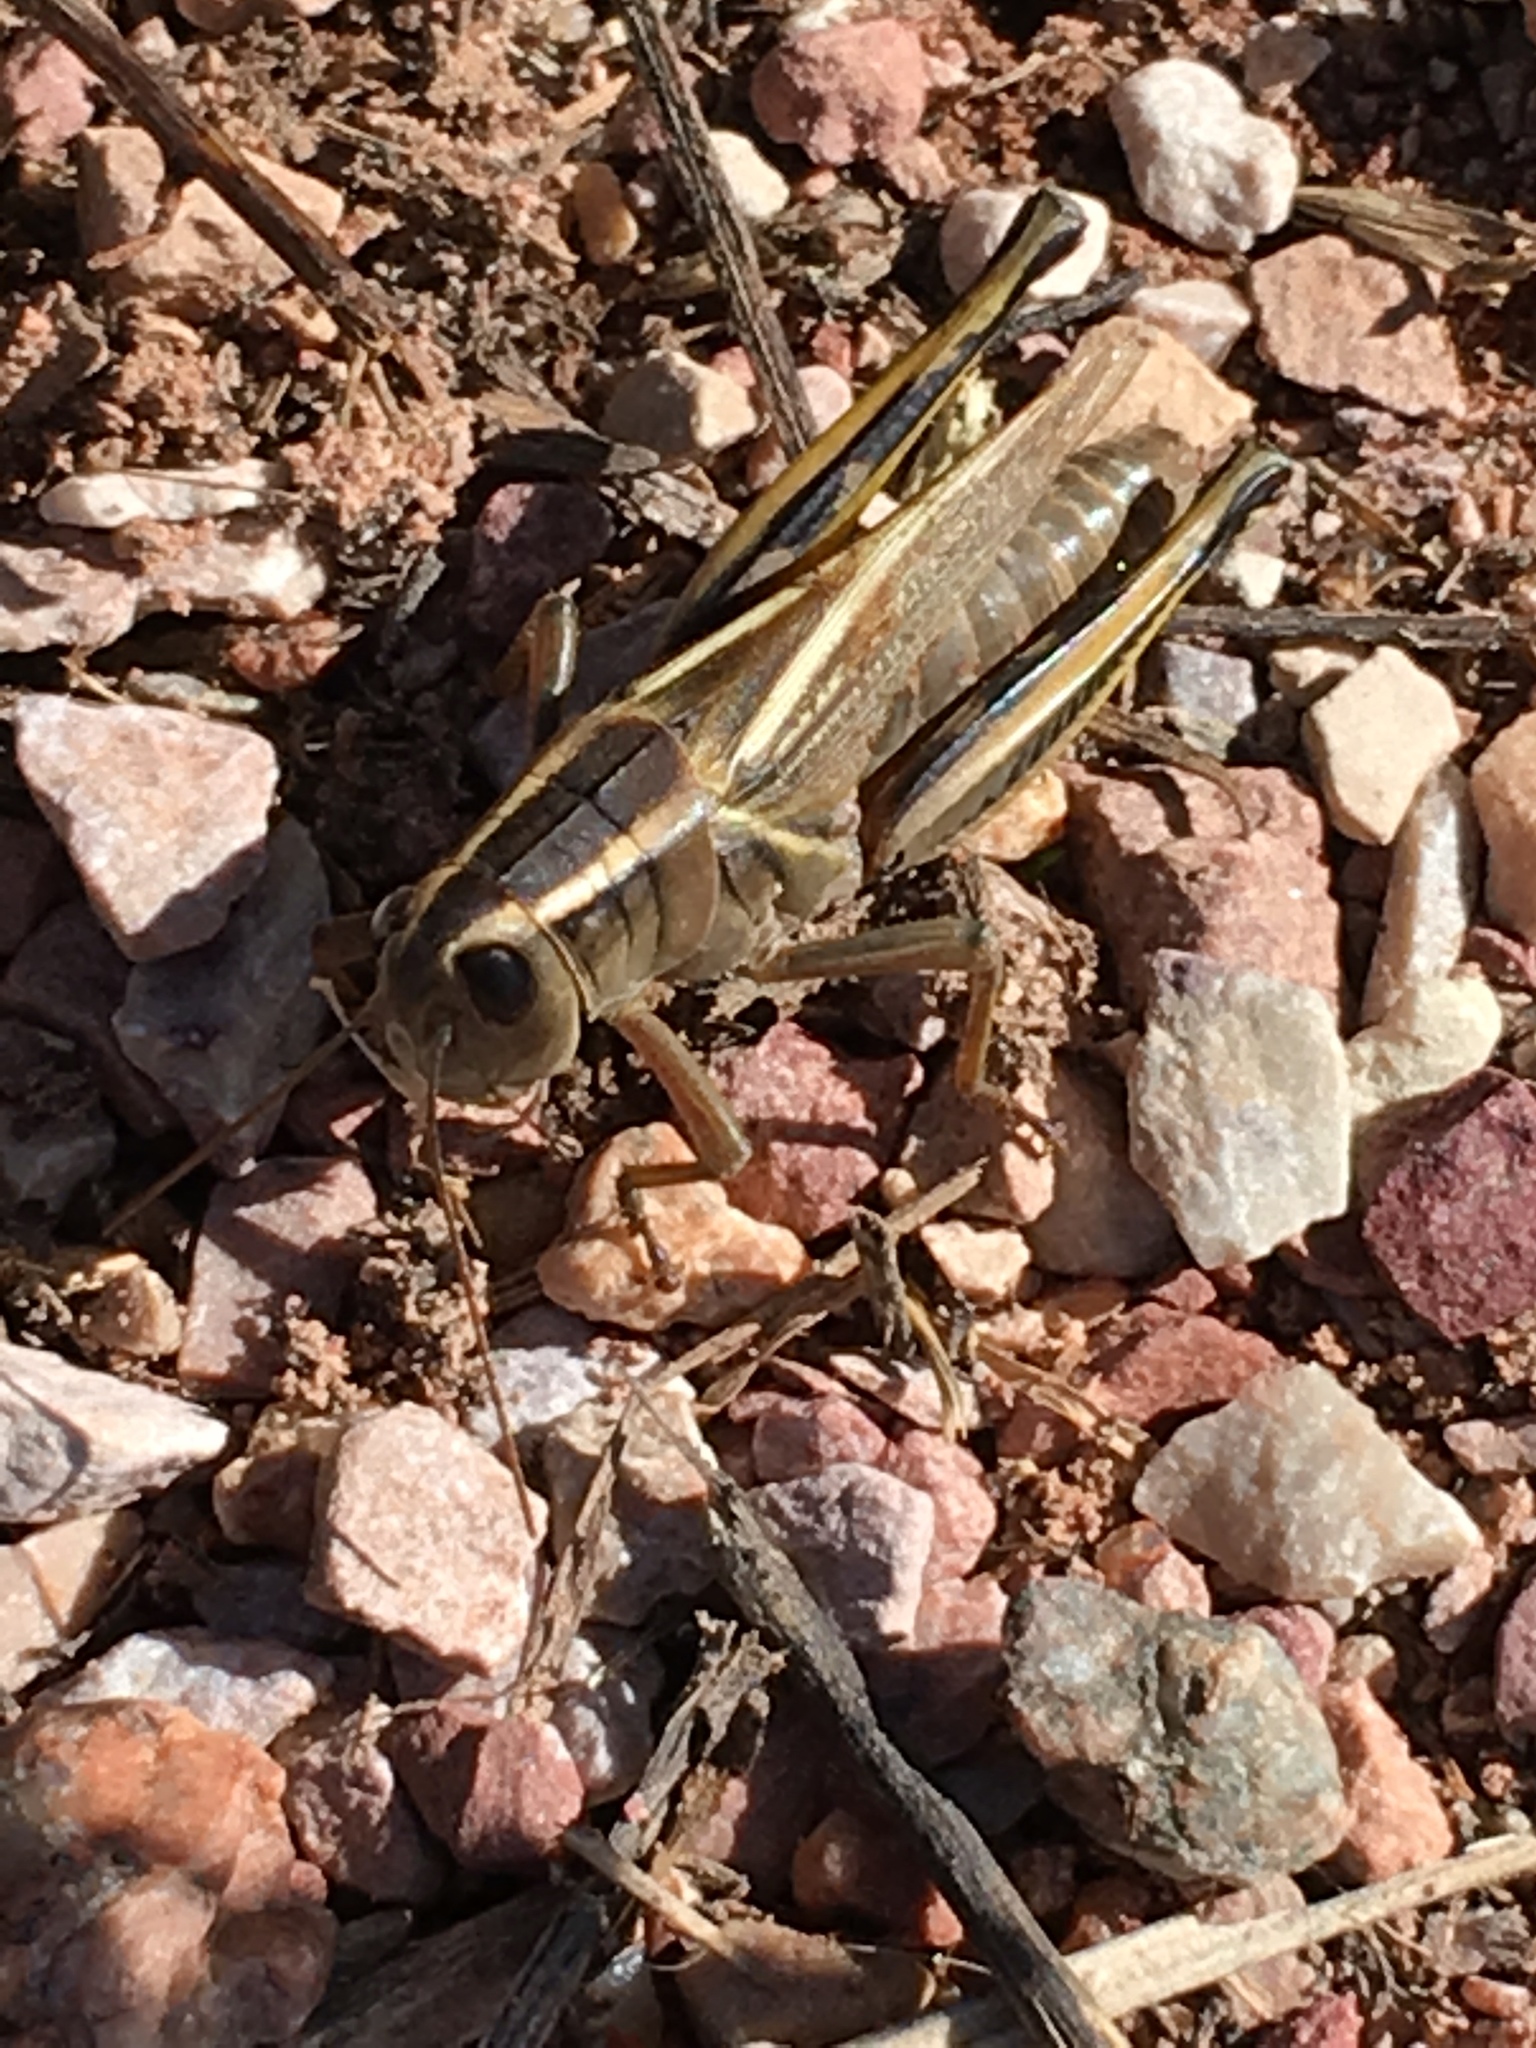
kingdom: Animalia
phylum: Arthropoda
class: Insecta
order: Orthoptera
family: Acrididae
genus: Melanoplus
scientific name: Melanoplus bivittatus
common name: Two-striped grasshopper
